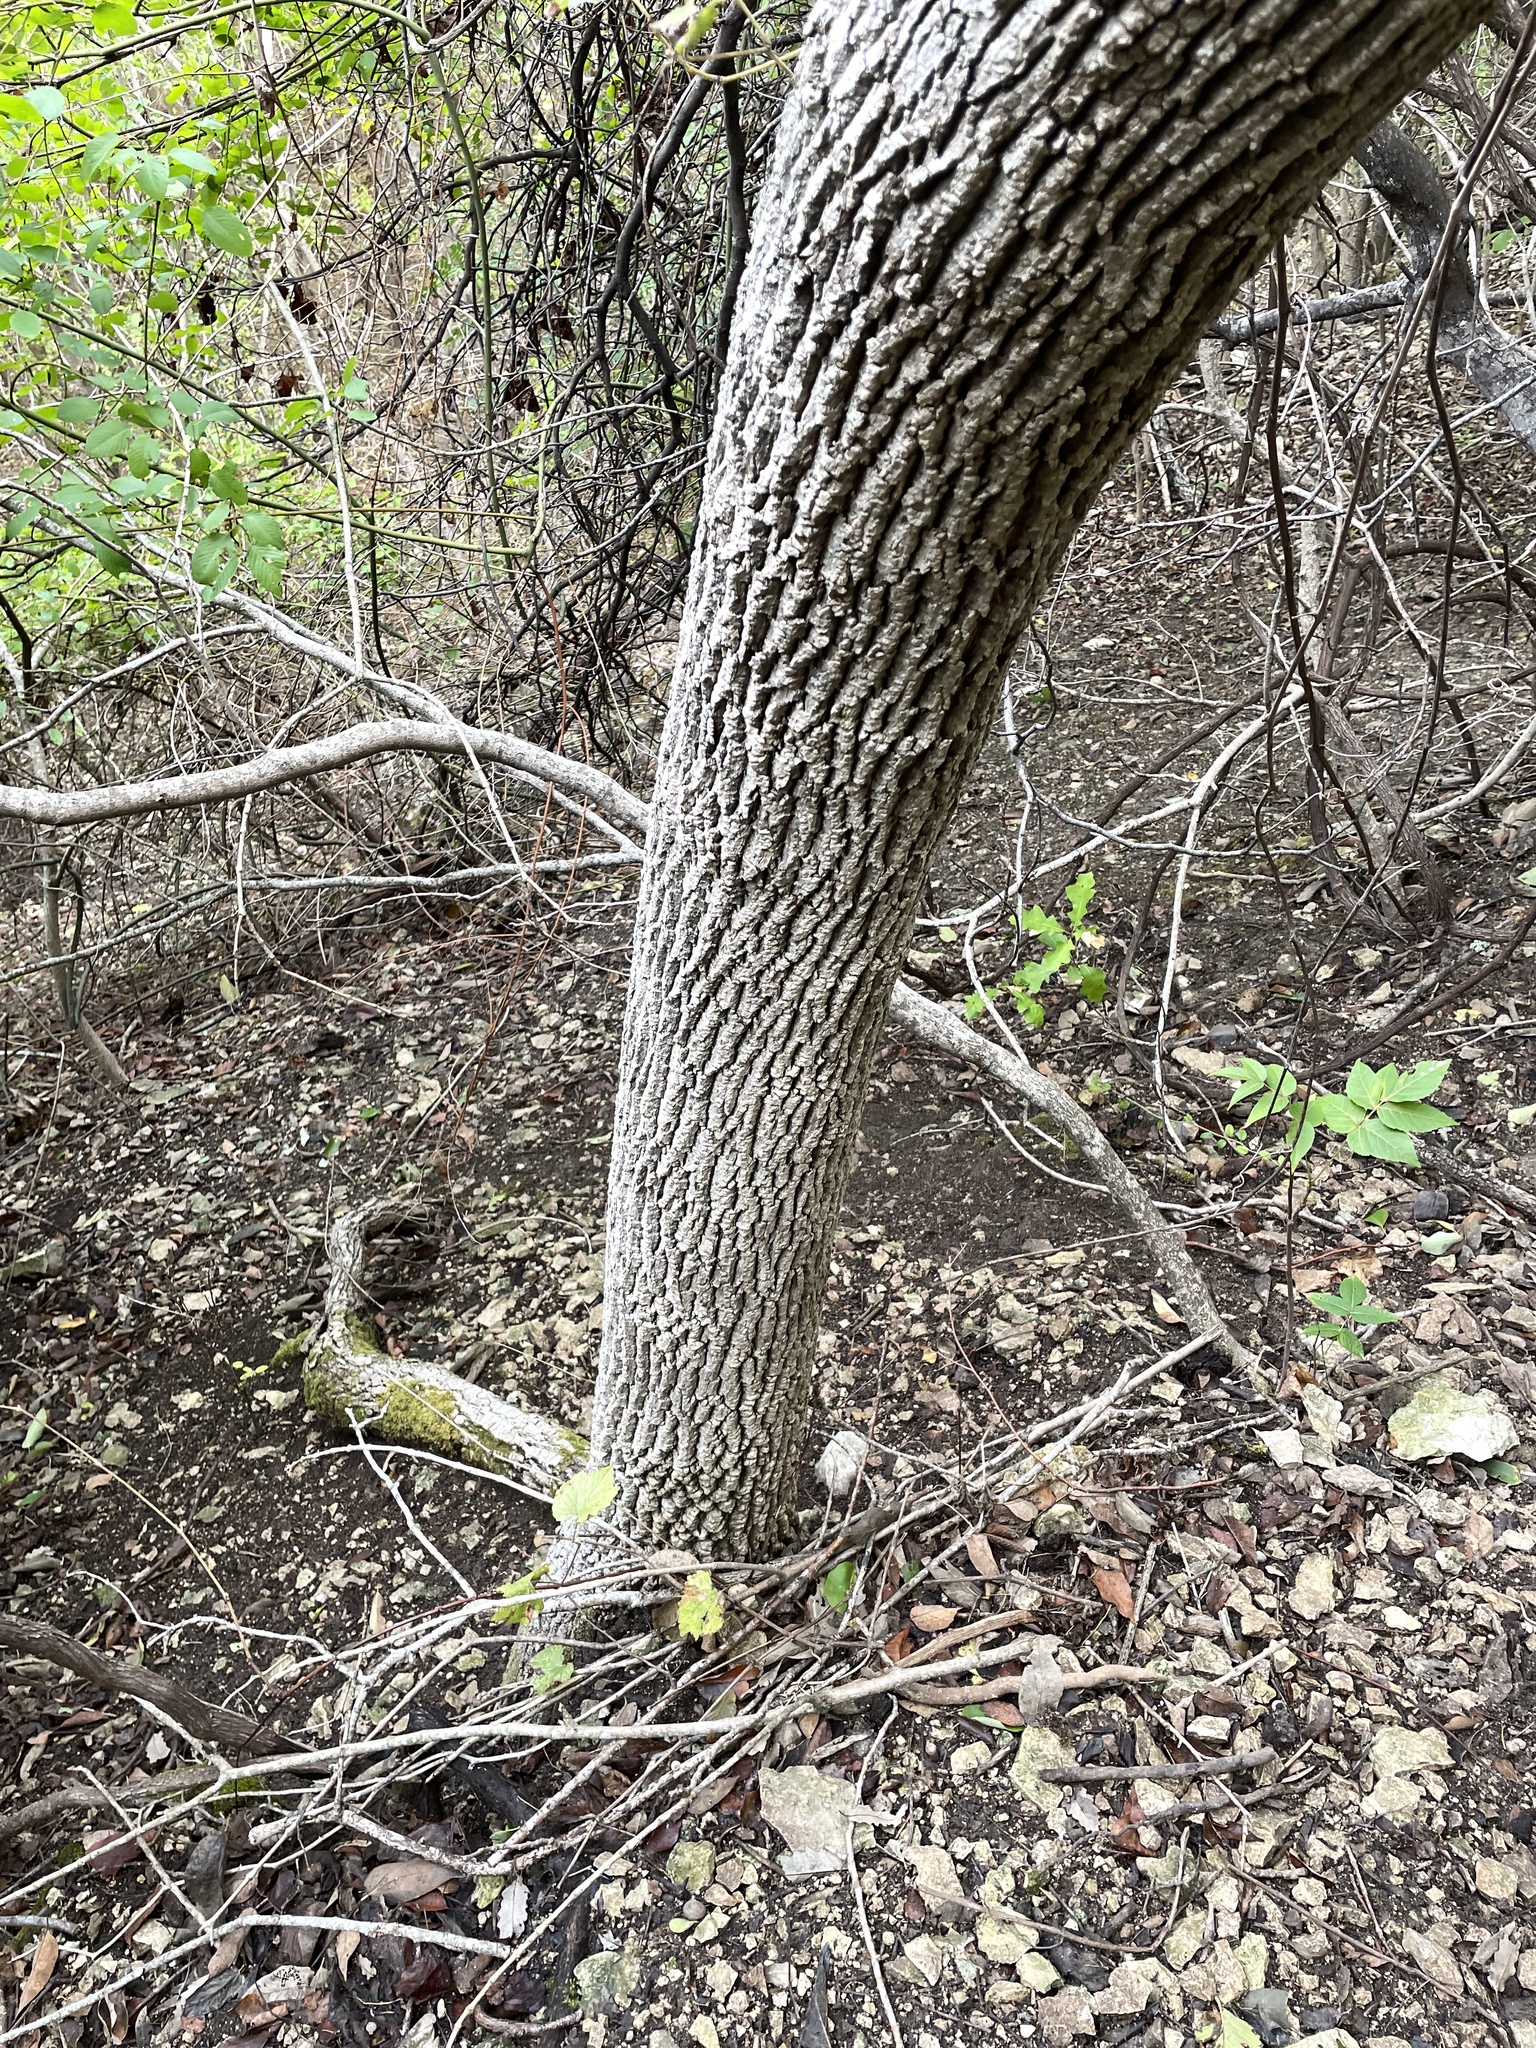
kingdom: Plantae
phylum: Tracheophyta
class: Magnoliopsida
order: Lamiales
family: Oleaceae
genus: Fraxinus
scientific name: Fraxinus albicans
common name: Texas ash
